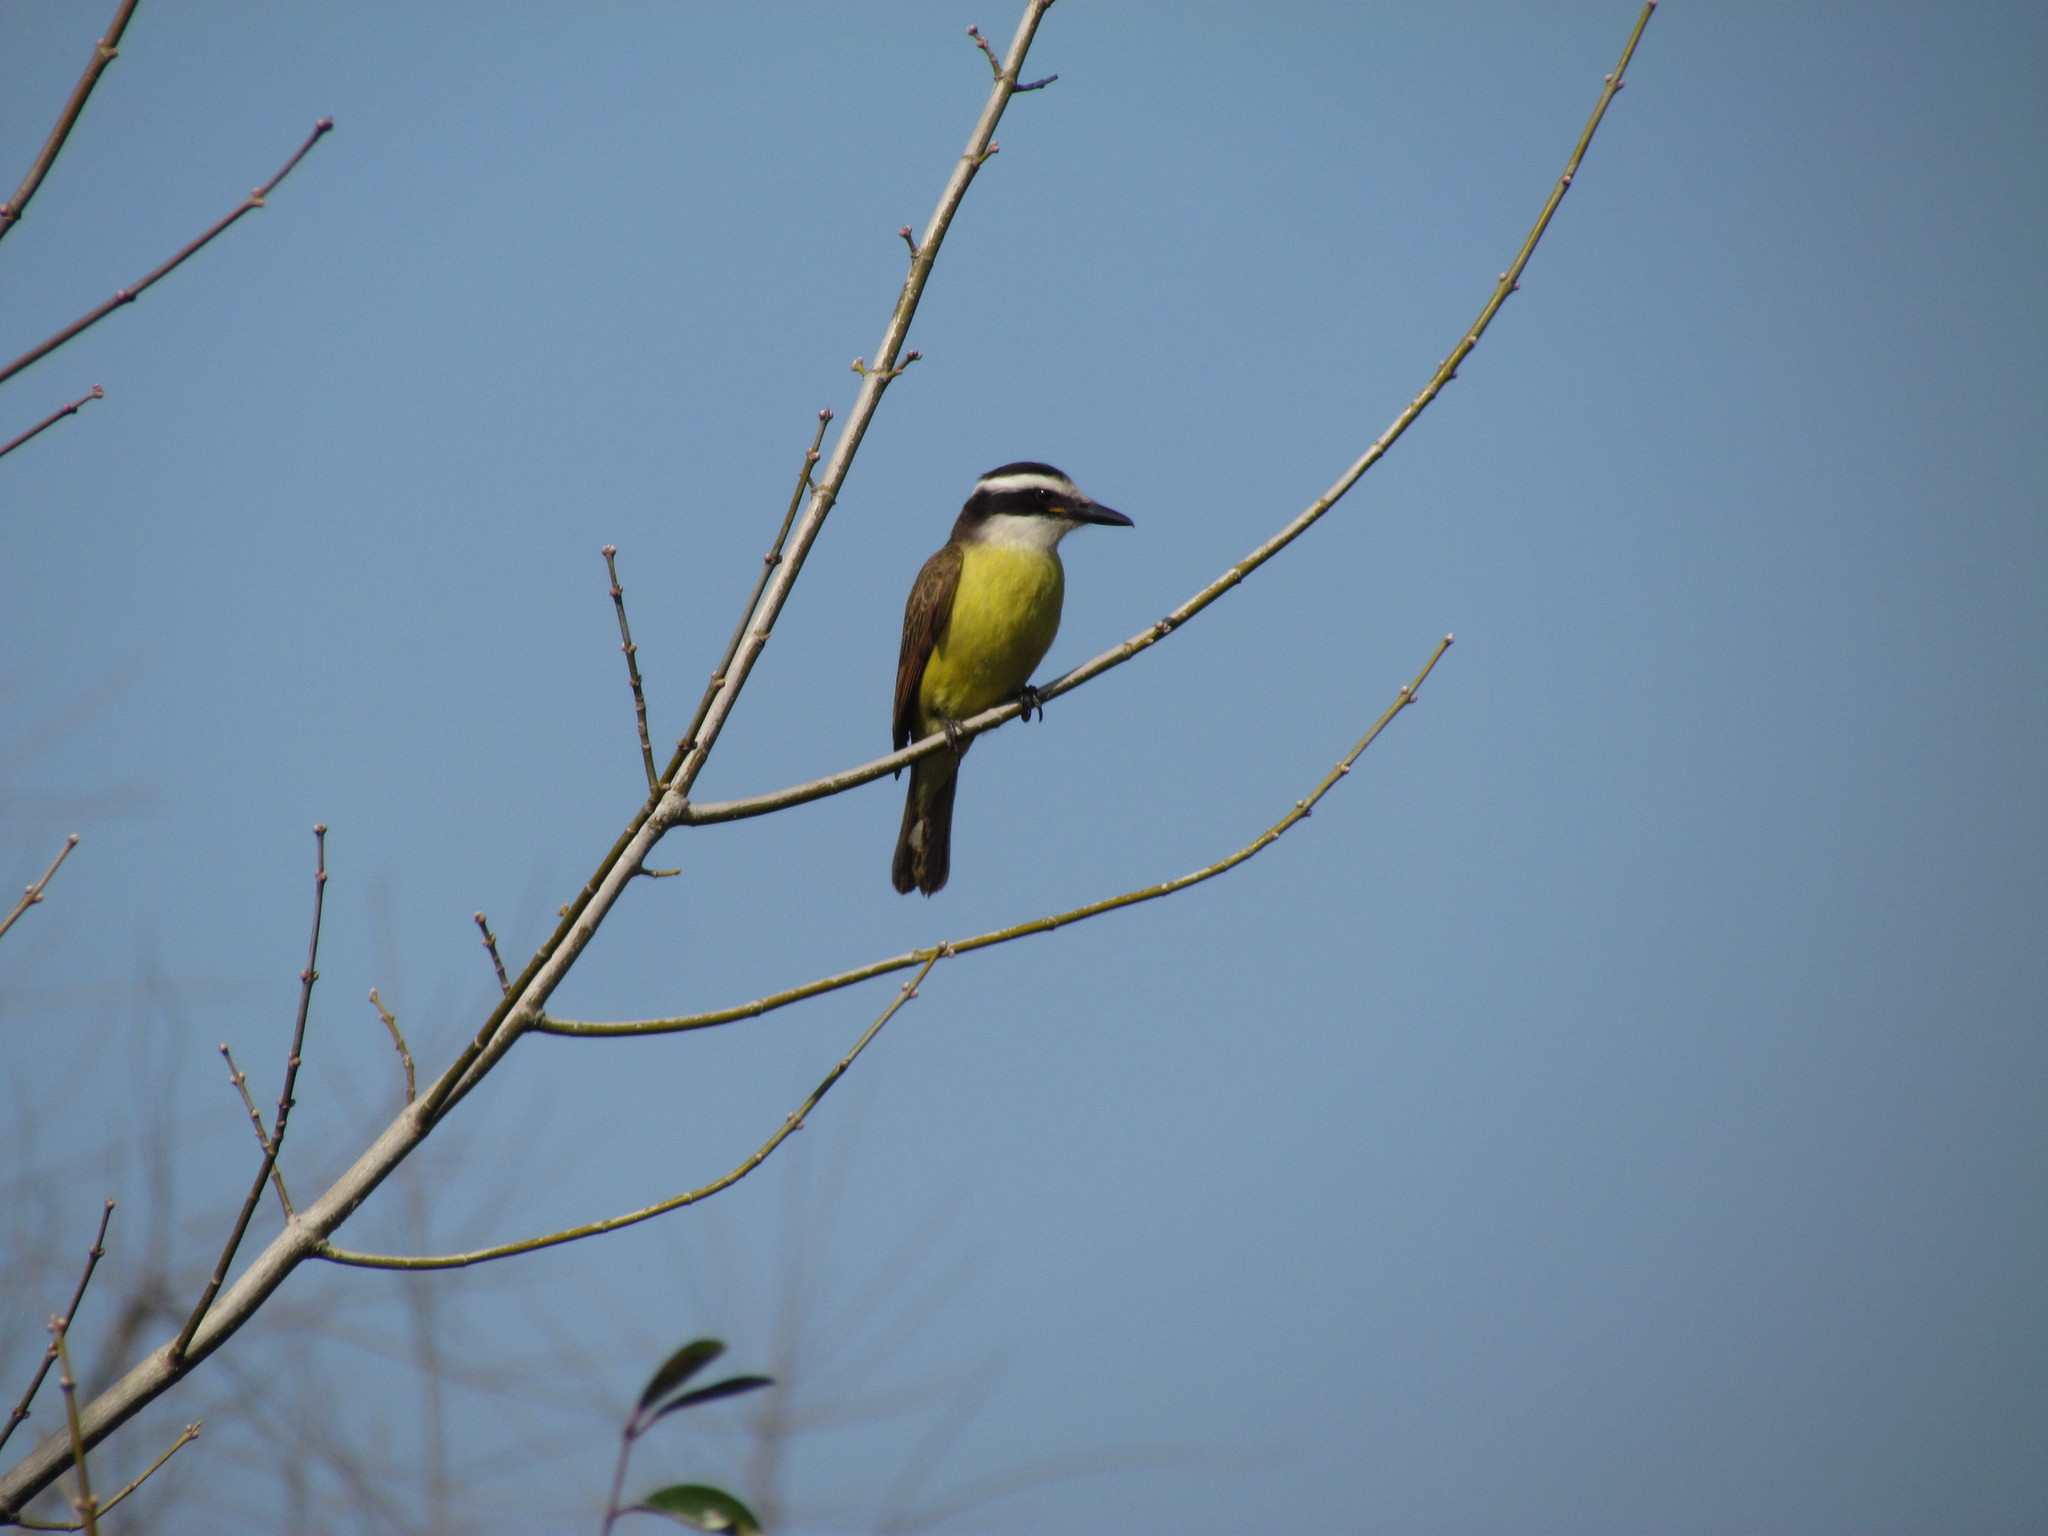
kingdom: Animalia
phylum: Chordata
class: Aves
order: Passeriformes
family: Tyrannidae
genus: Pitangus
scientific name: Pitangus sulphuratus
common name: Great kiskadee
